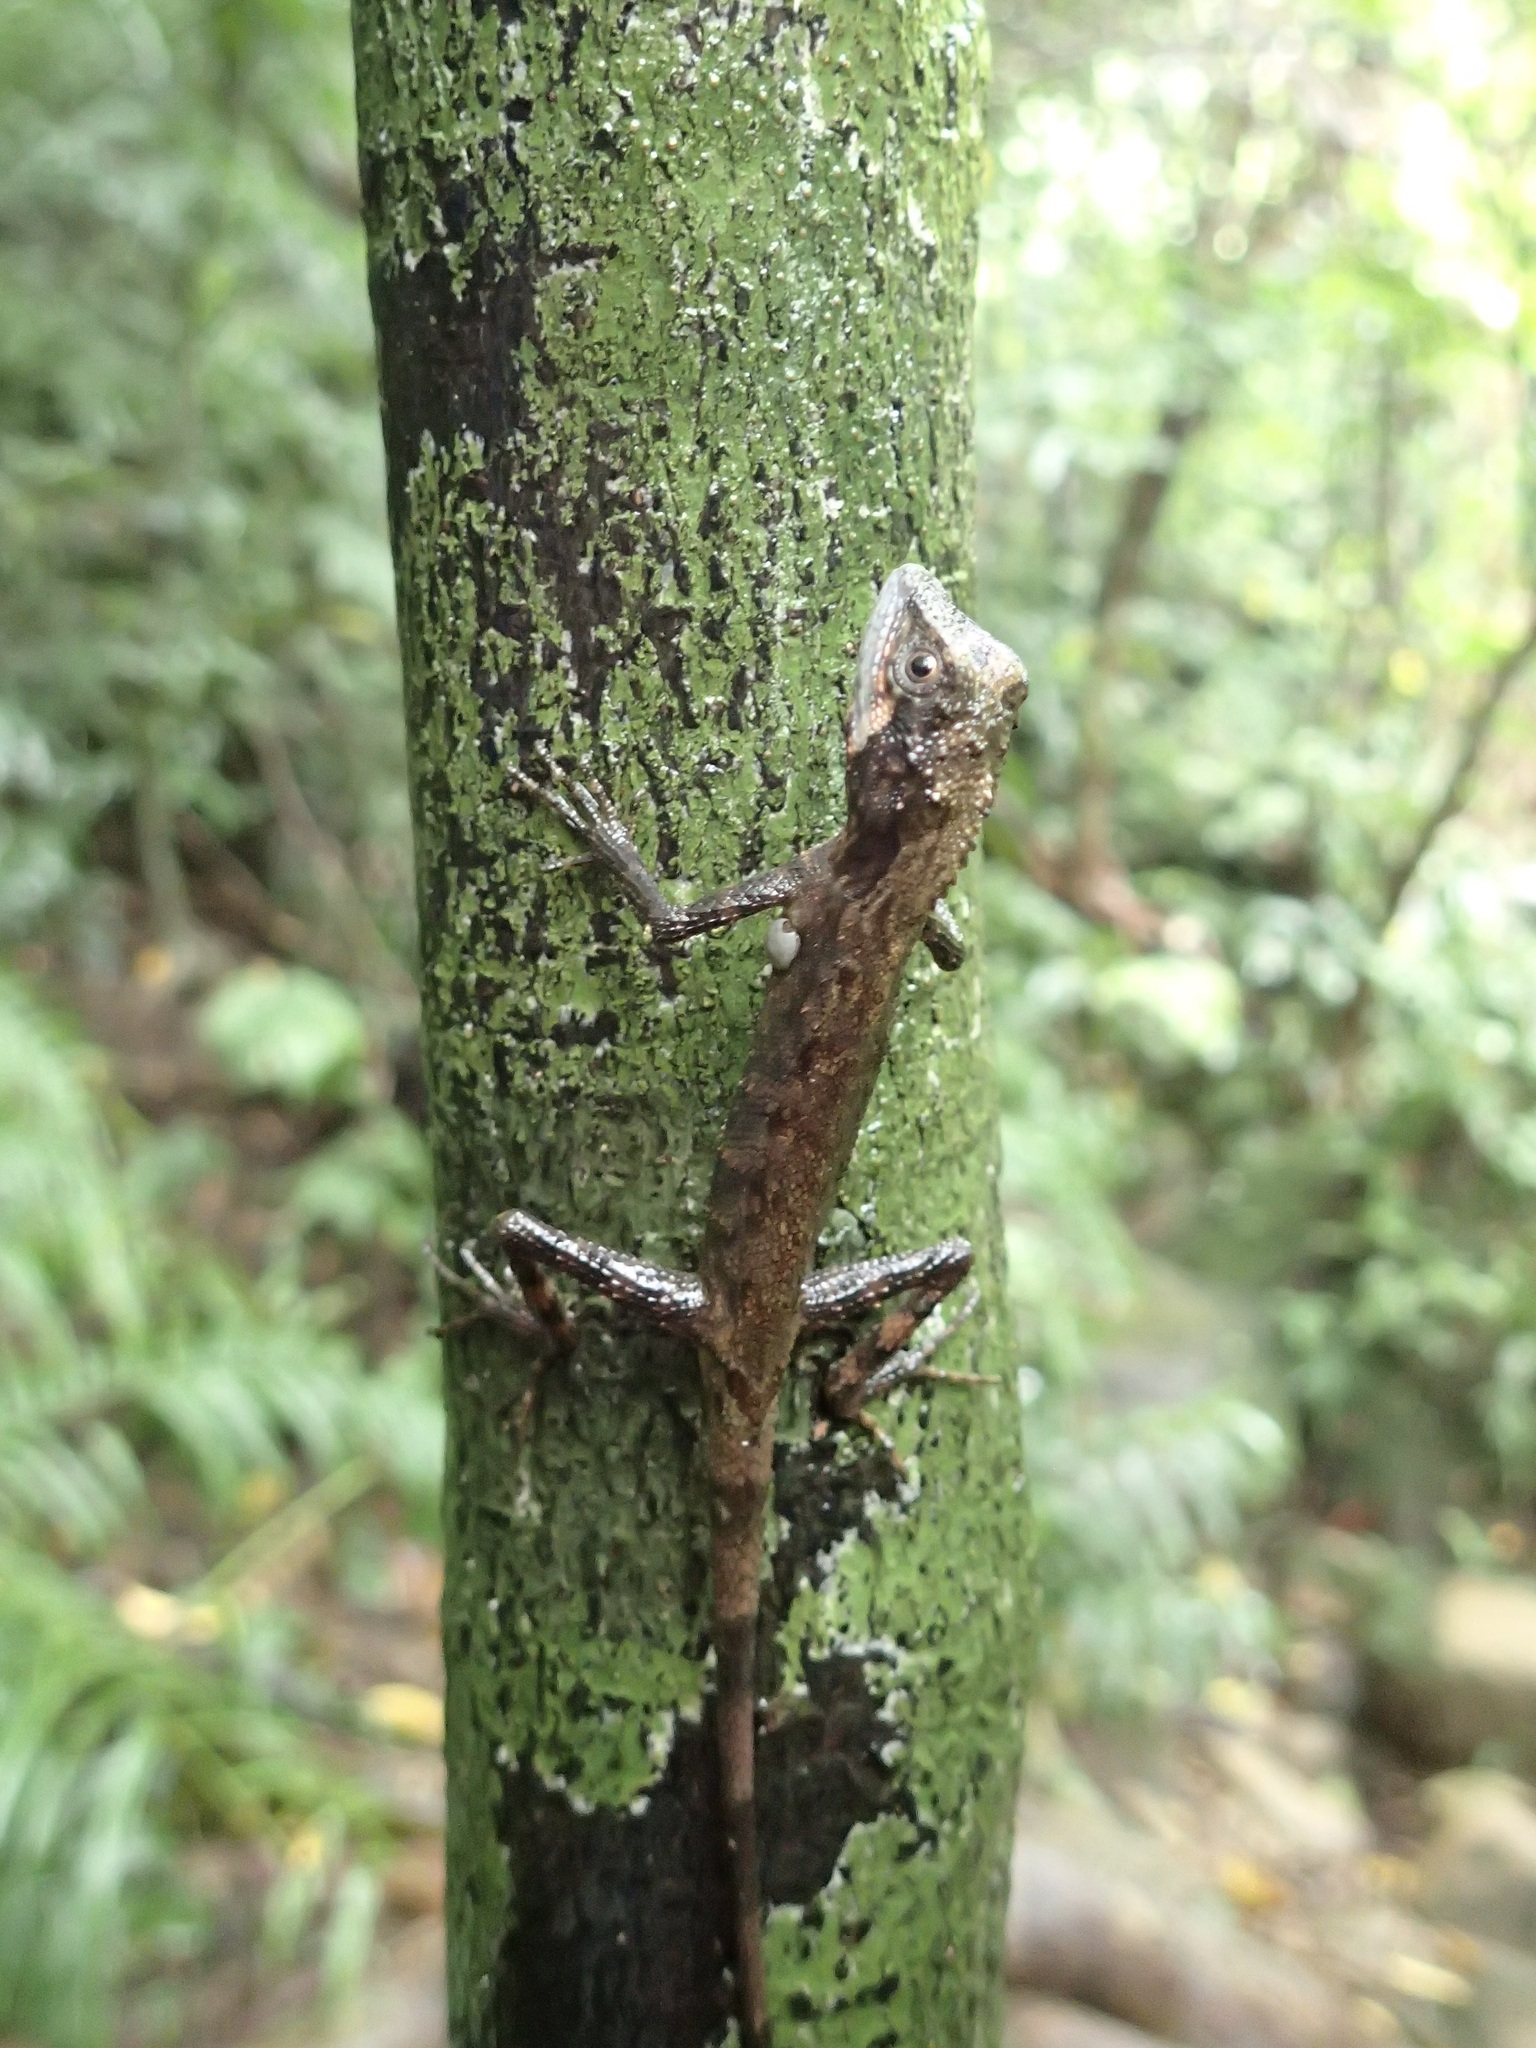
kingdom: Fungi
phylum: Basidiomycota
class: Agaricomycetes
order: Boletales
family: Diplocystidiaceae
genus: Diploderma
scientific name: Diploderma polygonatum
